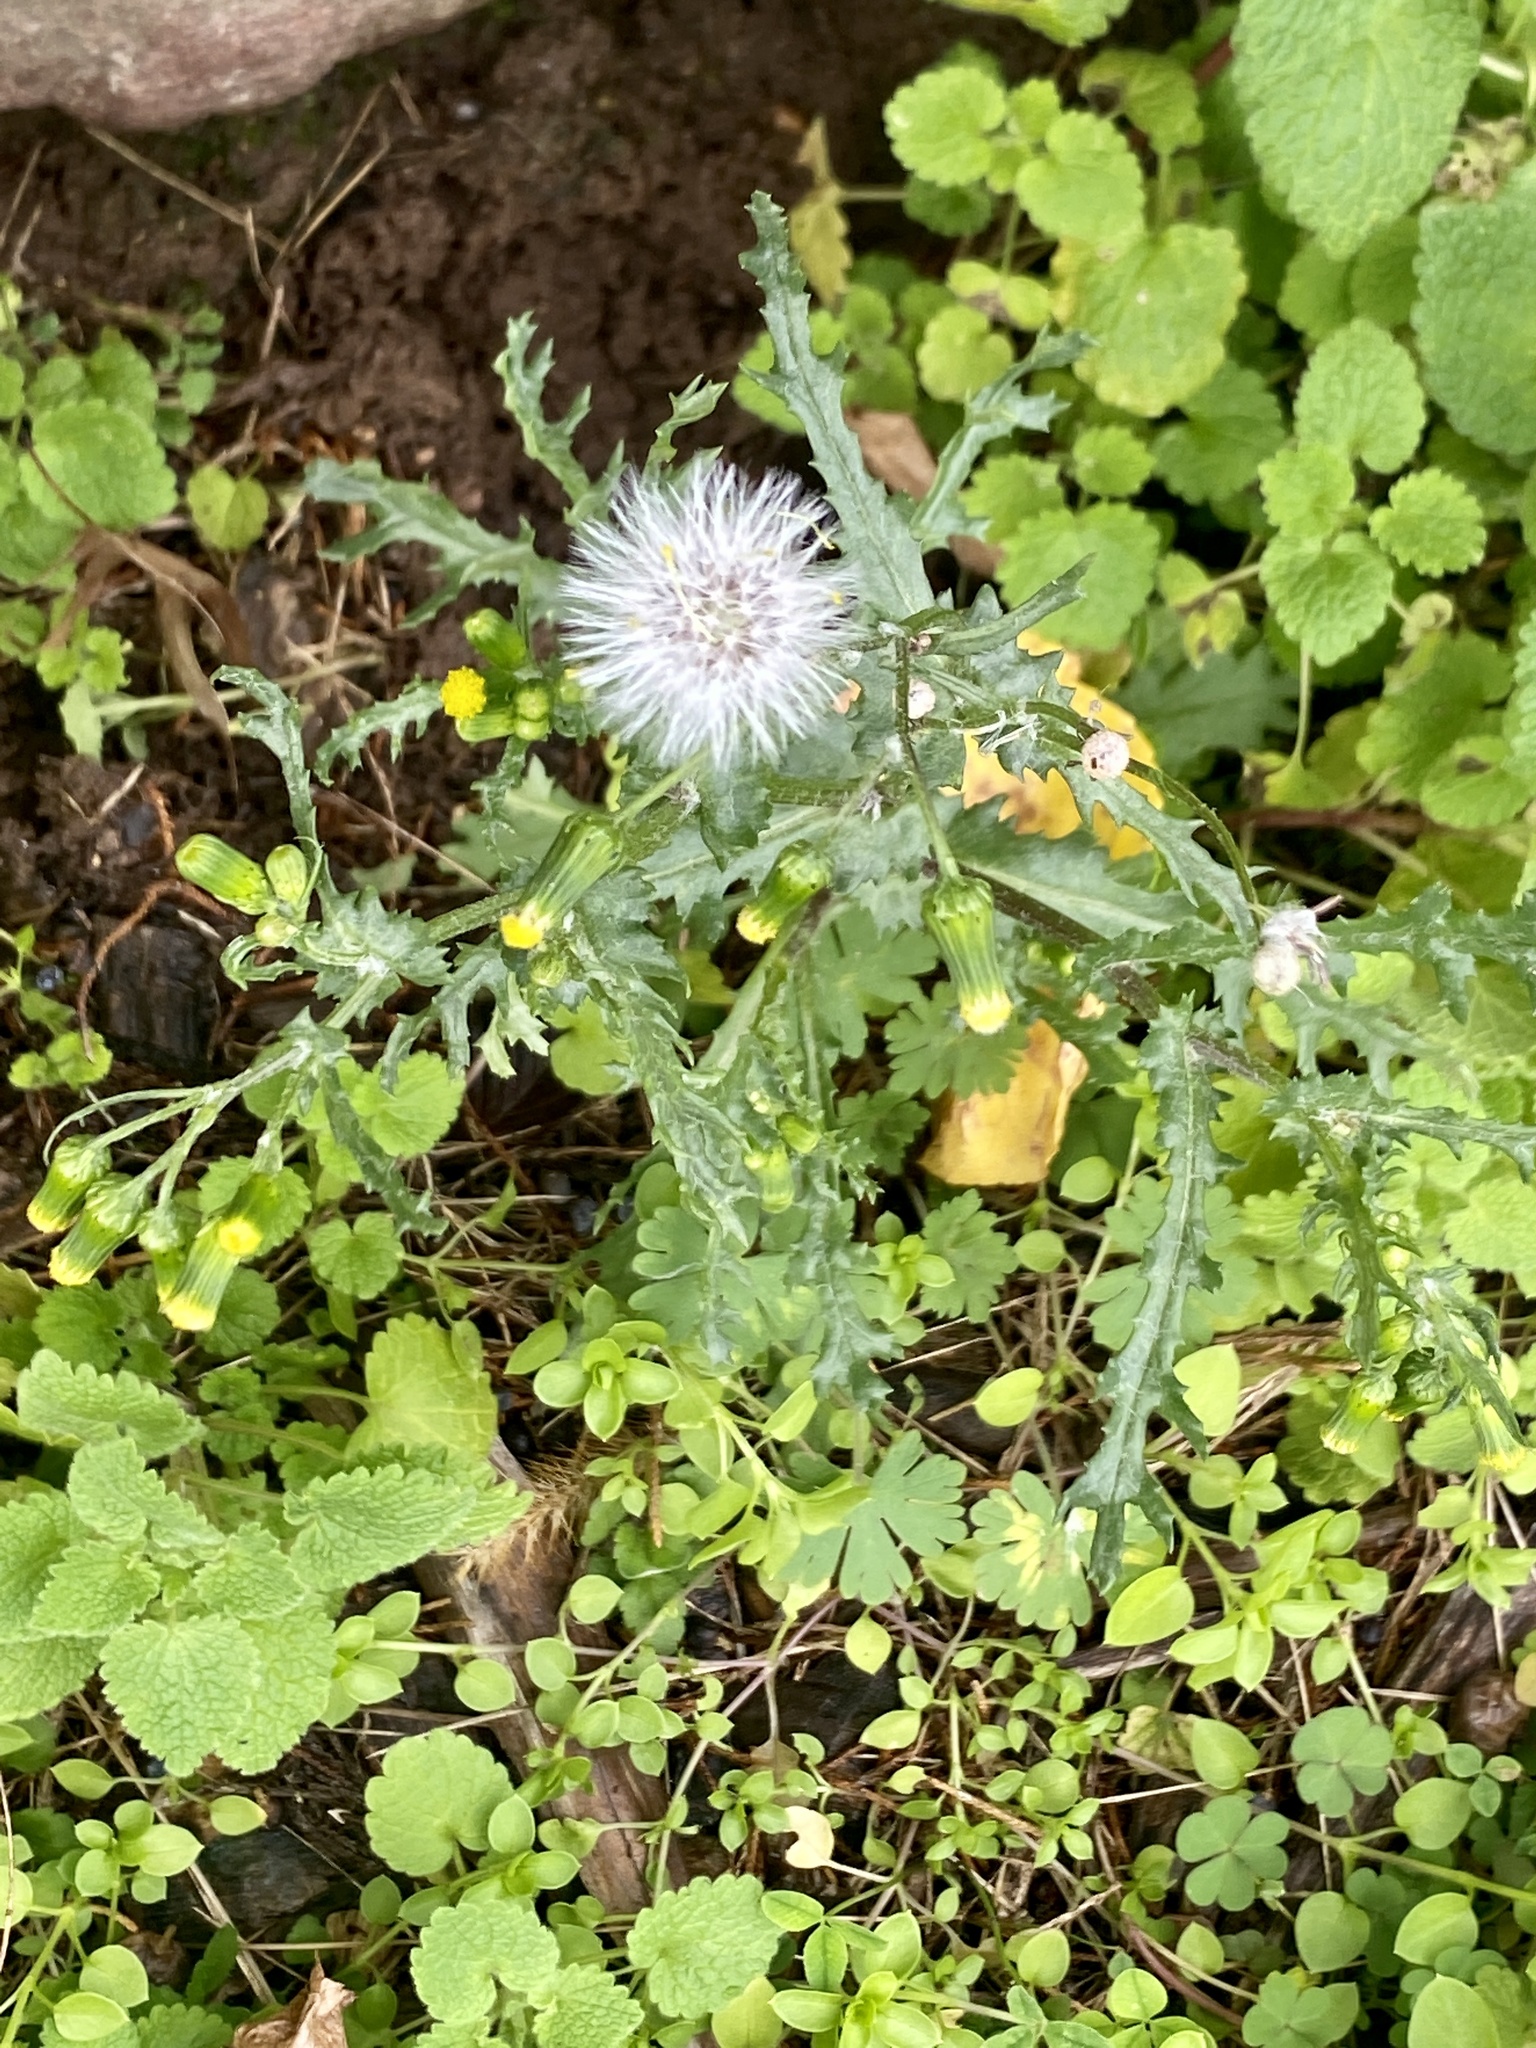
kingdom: Plantae
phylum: Tracheophyta
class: Magnoliopsida
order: Asterales
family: Asteraceae
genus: Senecio
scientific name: Senecio vulgaris
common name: Old-man-in-the-spring
